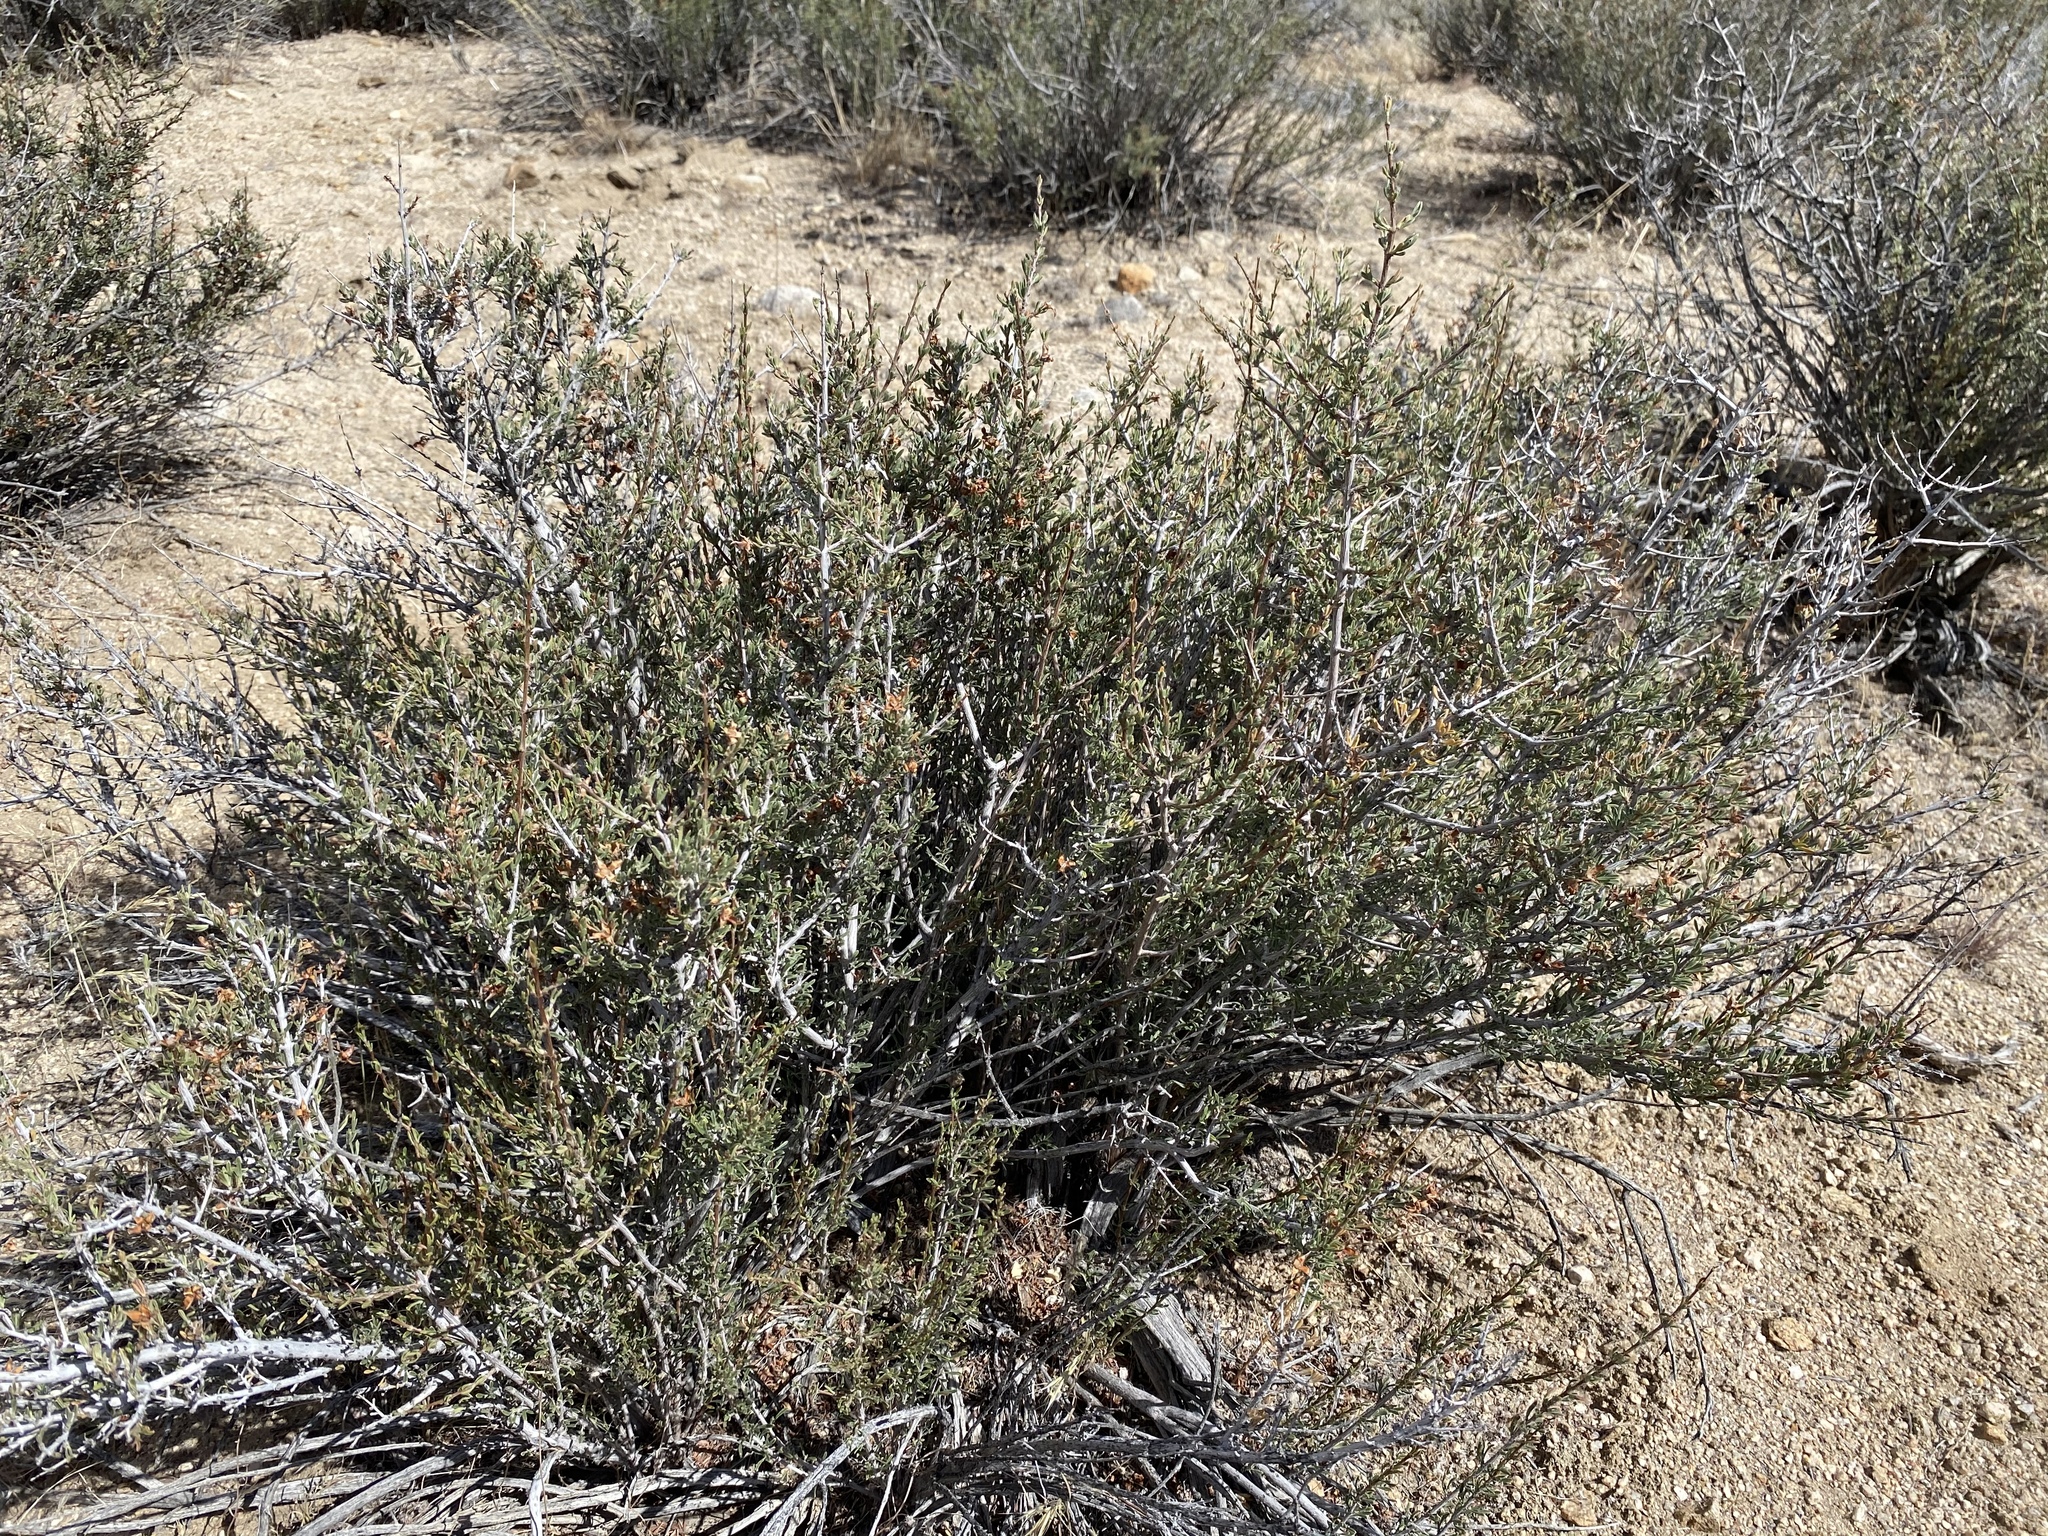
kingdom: Plantae
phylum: Tracheophyta
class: Magnoliopsida
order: Rosales
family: Rosaceae
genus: Coleogyne
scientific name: Coleogyne ramosissima
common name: Blackbrush
